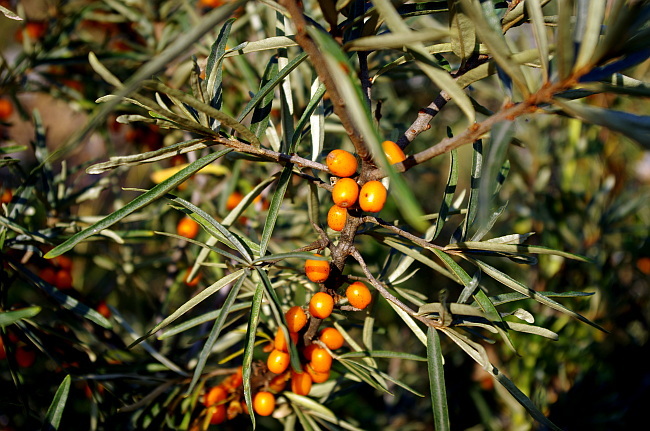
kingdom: Plantae
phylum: Tracheophyta
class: Magnoliopsida
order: Rosales
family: Elaeagnaceae
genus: Hippophae
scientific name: Hippophae rhamnoides
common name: Sea-buckthorn
